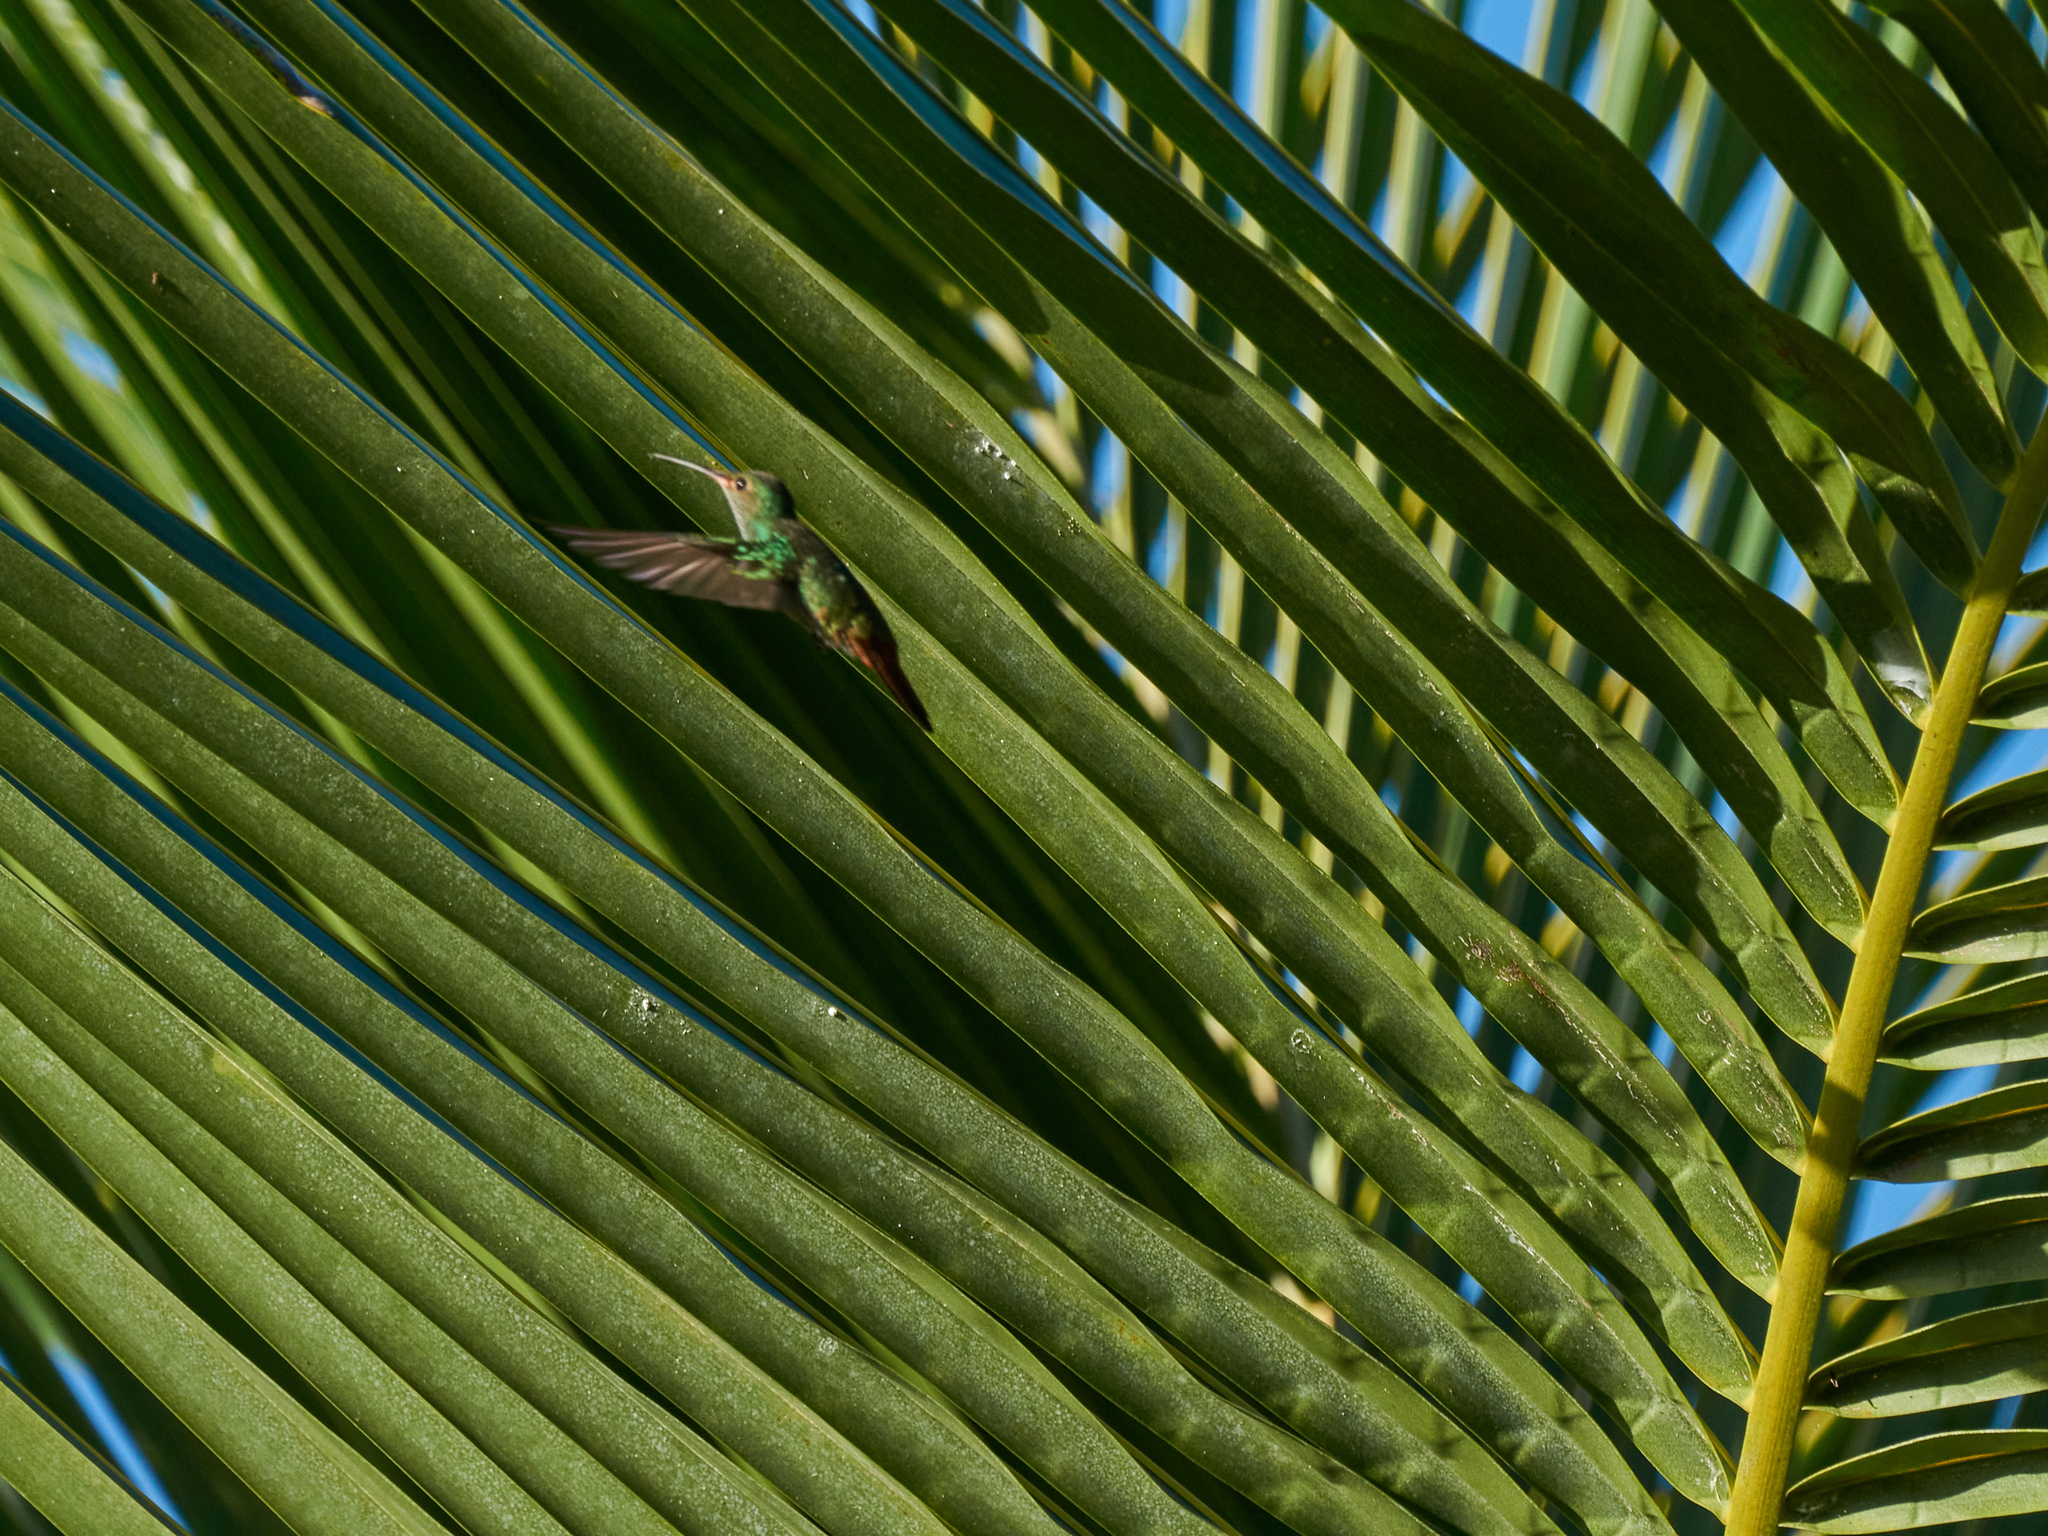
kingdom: Animalia
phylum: Chordata
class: Aves
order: Apodiformes
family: Trochilidae
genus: Amazilia
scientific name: Amazilia tzacatl
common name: Rufous-tailed hummingbird
